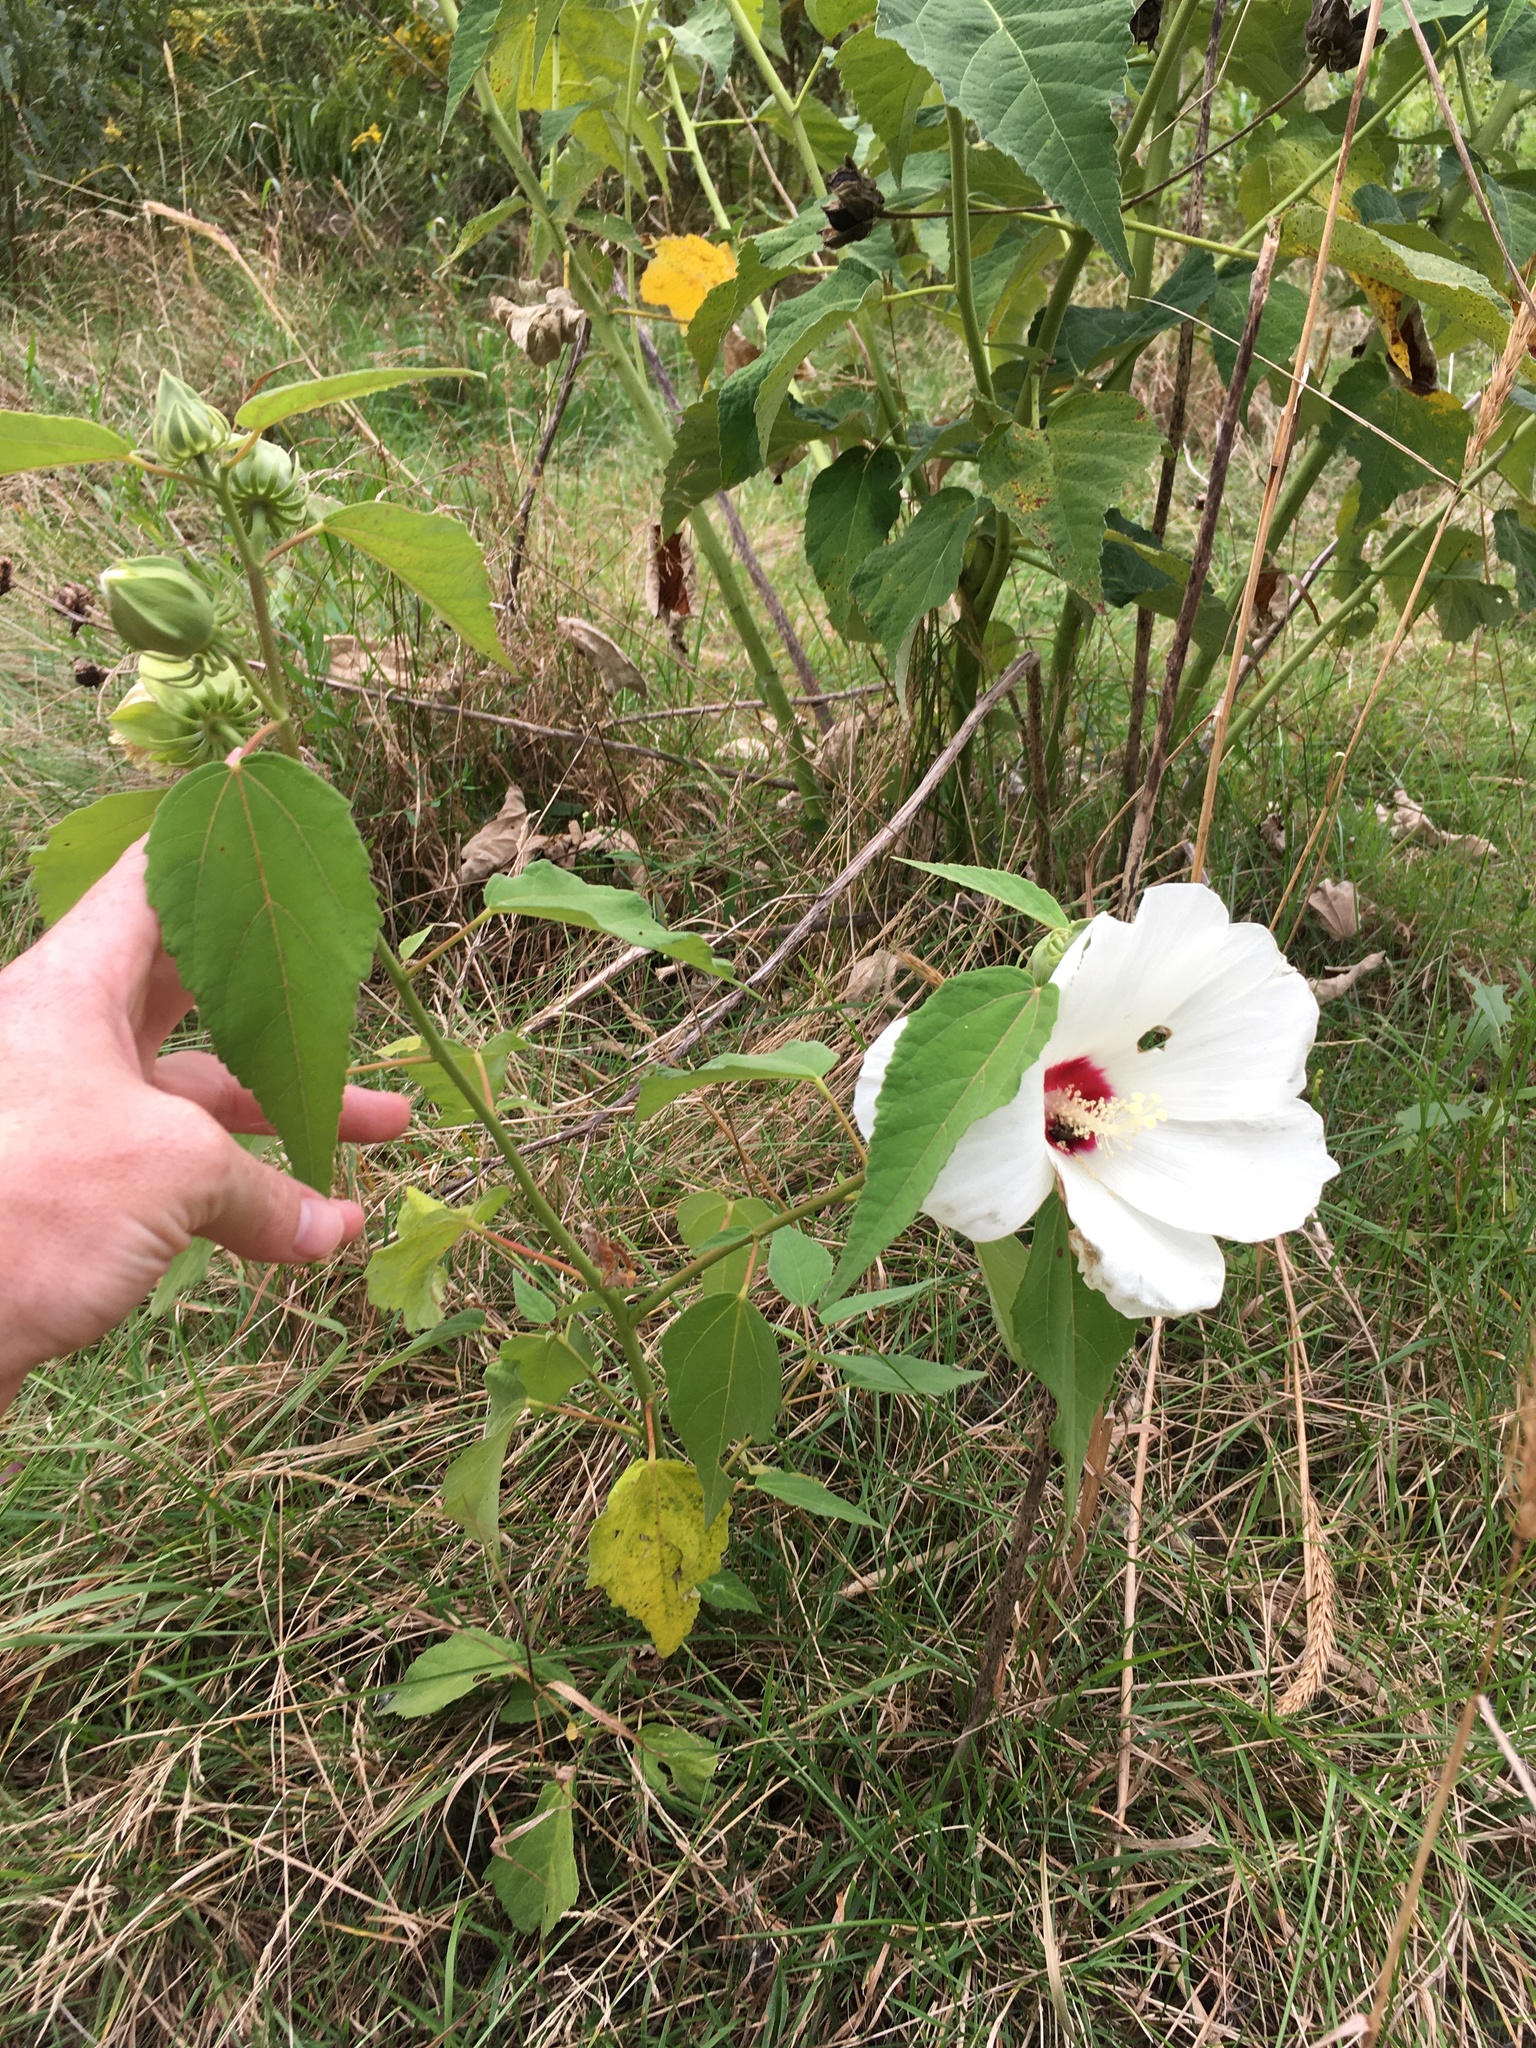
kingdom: Plantae
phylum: Tracheophyta
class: Magnoliopsida
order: Malvales
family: Malvaceae
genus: Hibiscus
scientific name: Hibiscus moscheutos
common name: Common rose-mallow
